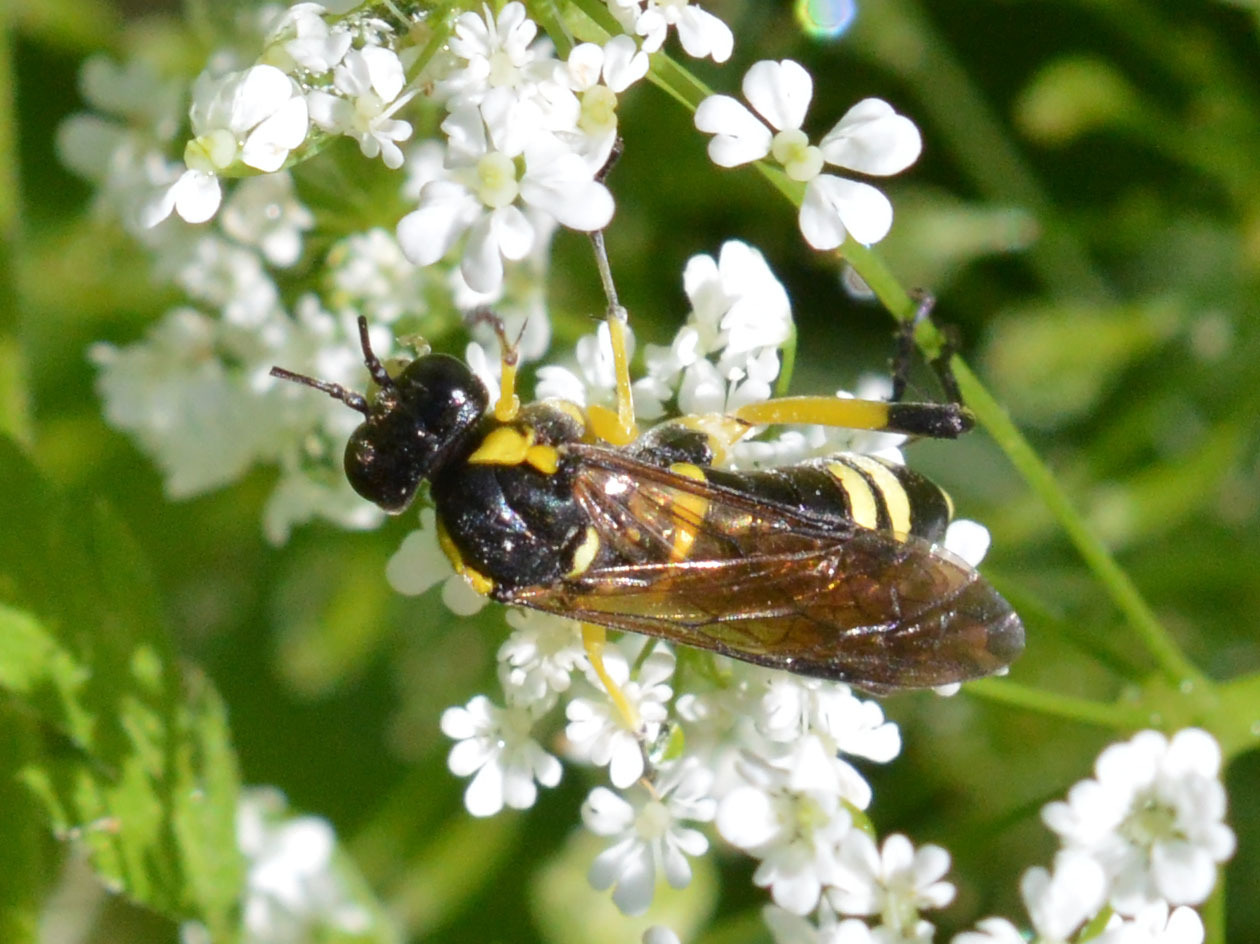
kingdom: Animalia
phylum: Arthropoda
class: Insecta
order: Hymenoptera
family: Tenthredinidae
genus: Macrophya
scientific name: Macrophya montana
